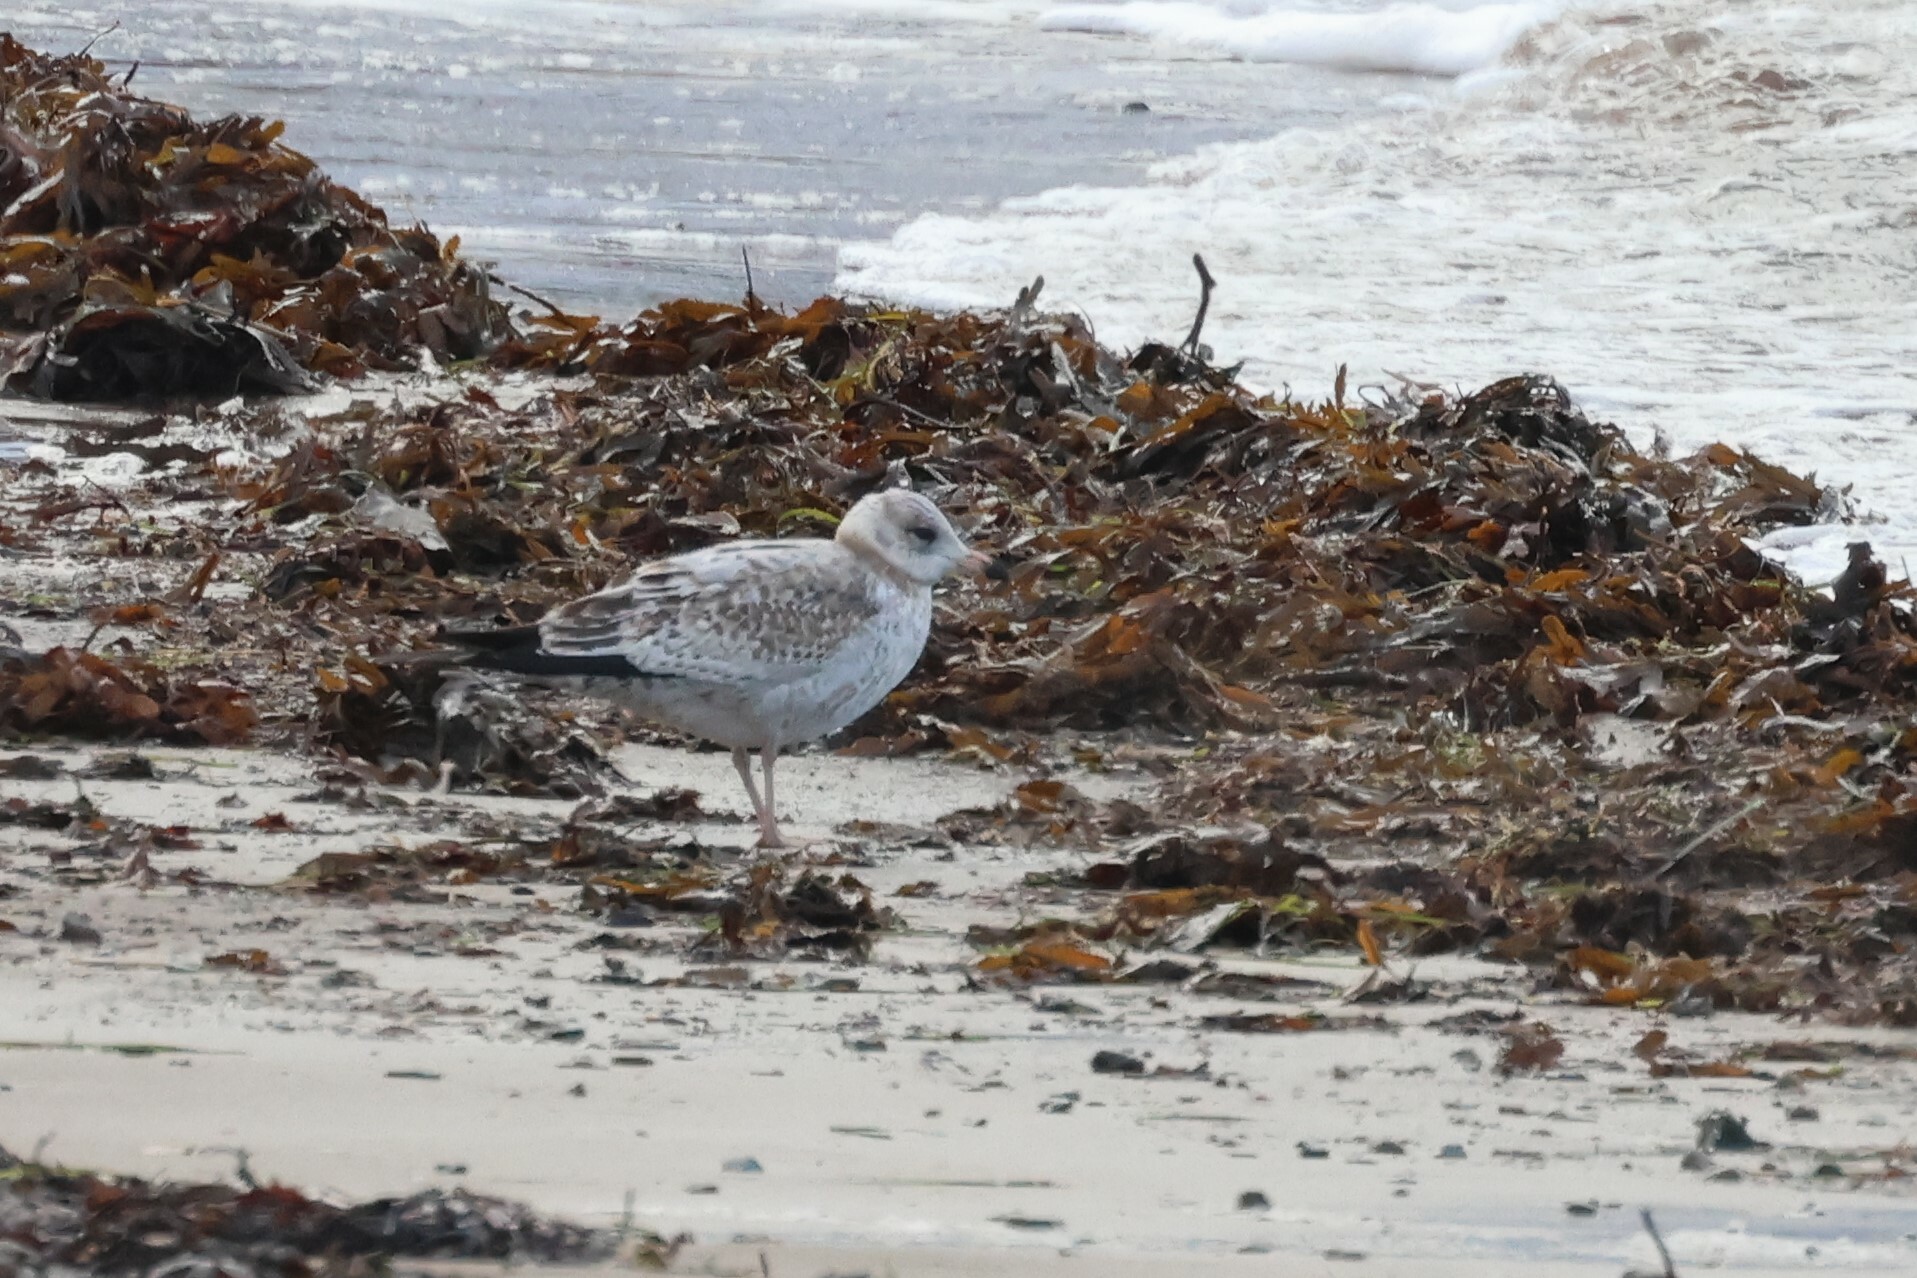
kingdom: Animalia
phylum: Chordata
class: Aves
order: Charadriiformes
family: Laridae
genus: Larus
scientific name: Larus delawarensis
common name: Ring-billed gull
